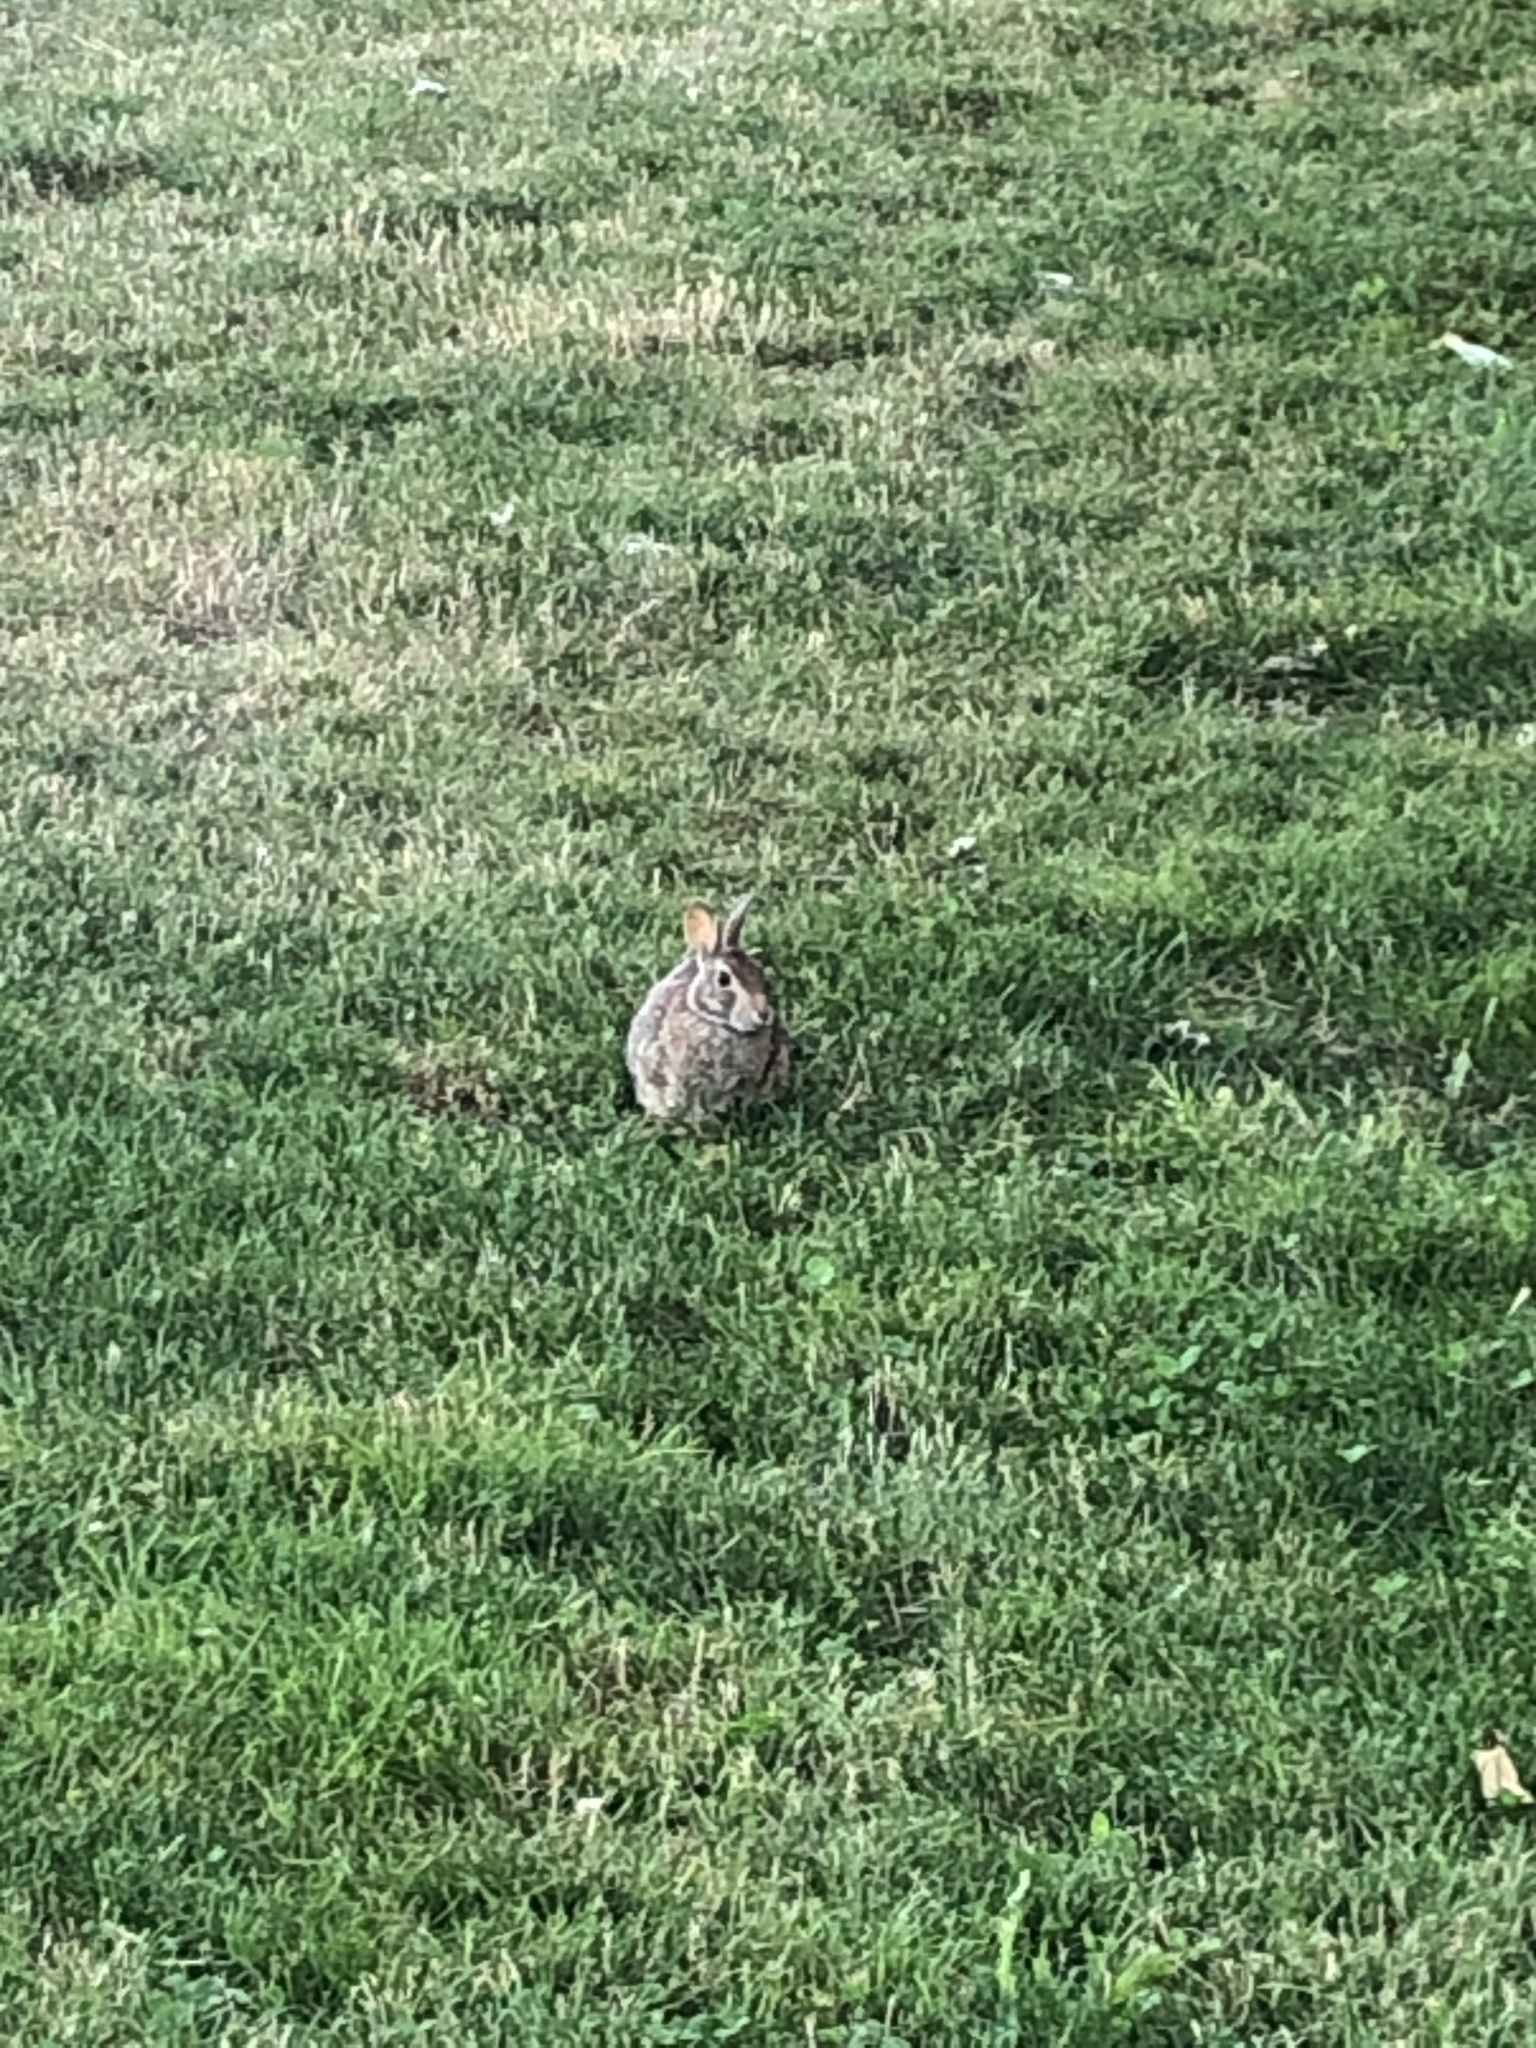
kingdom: Animalia
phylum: Chordata
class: Mammalia
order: Lagomorpha
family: Leporidae
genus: Sylvilagus
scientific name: Sylvilagus floridanus
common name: Eastern cottontail
